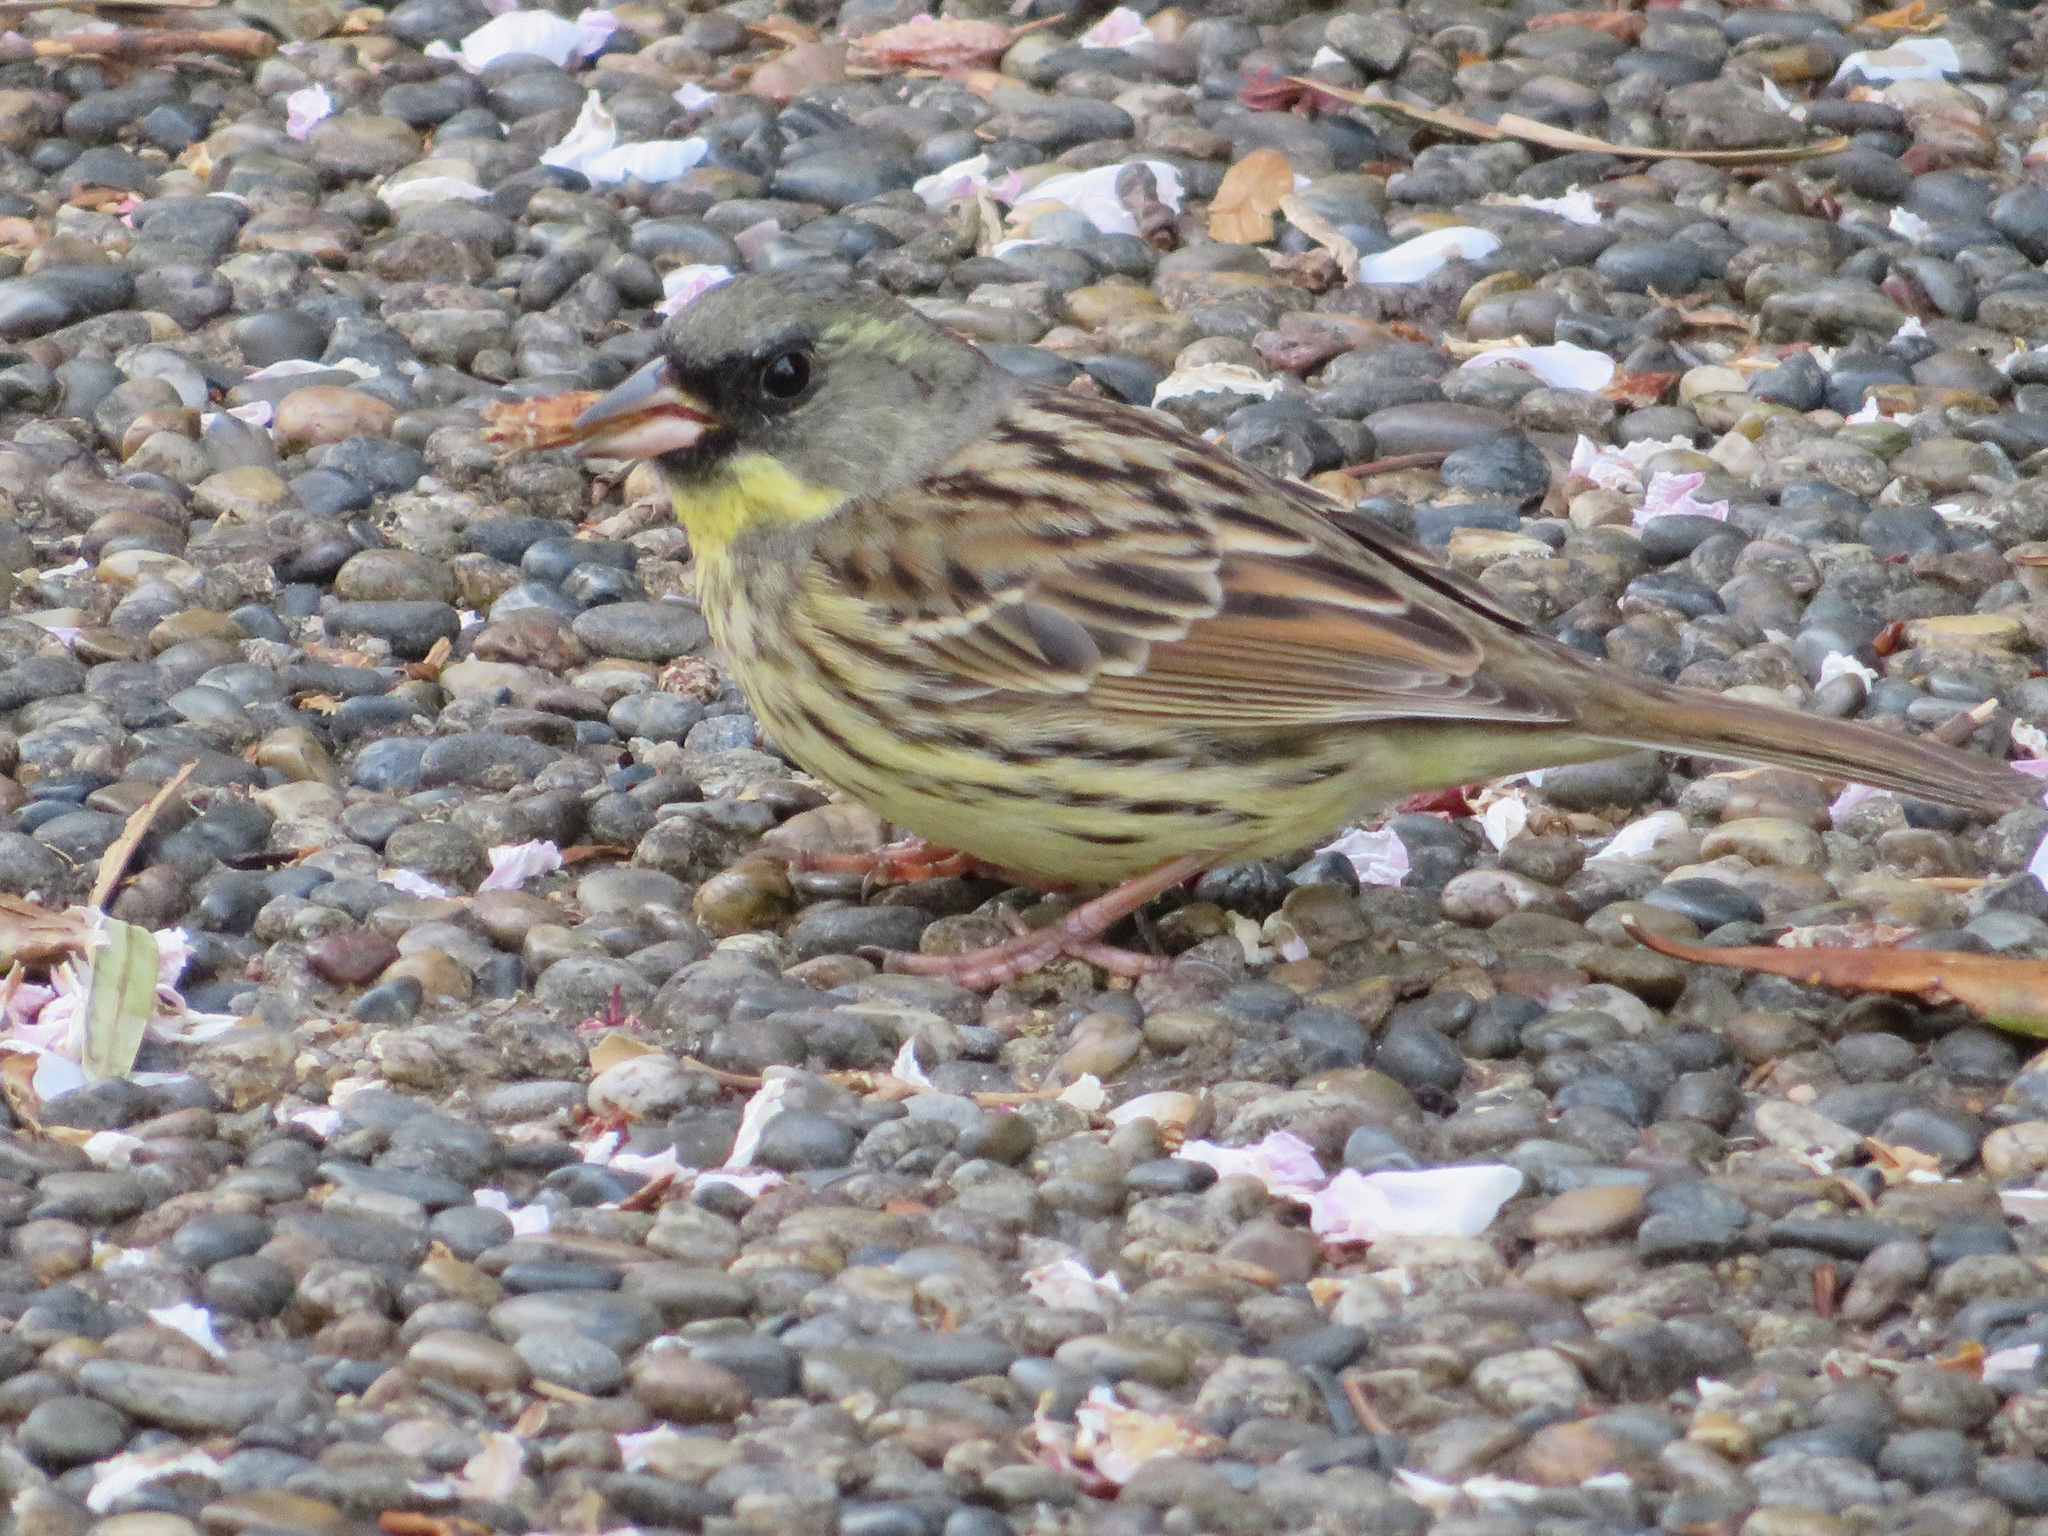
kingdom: Animalia
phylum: Chordata
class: Aves
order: Passeriformes
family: Emberizidae
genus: Emberiza
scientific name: Emberiza personata
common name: Masked bunting
